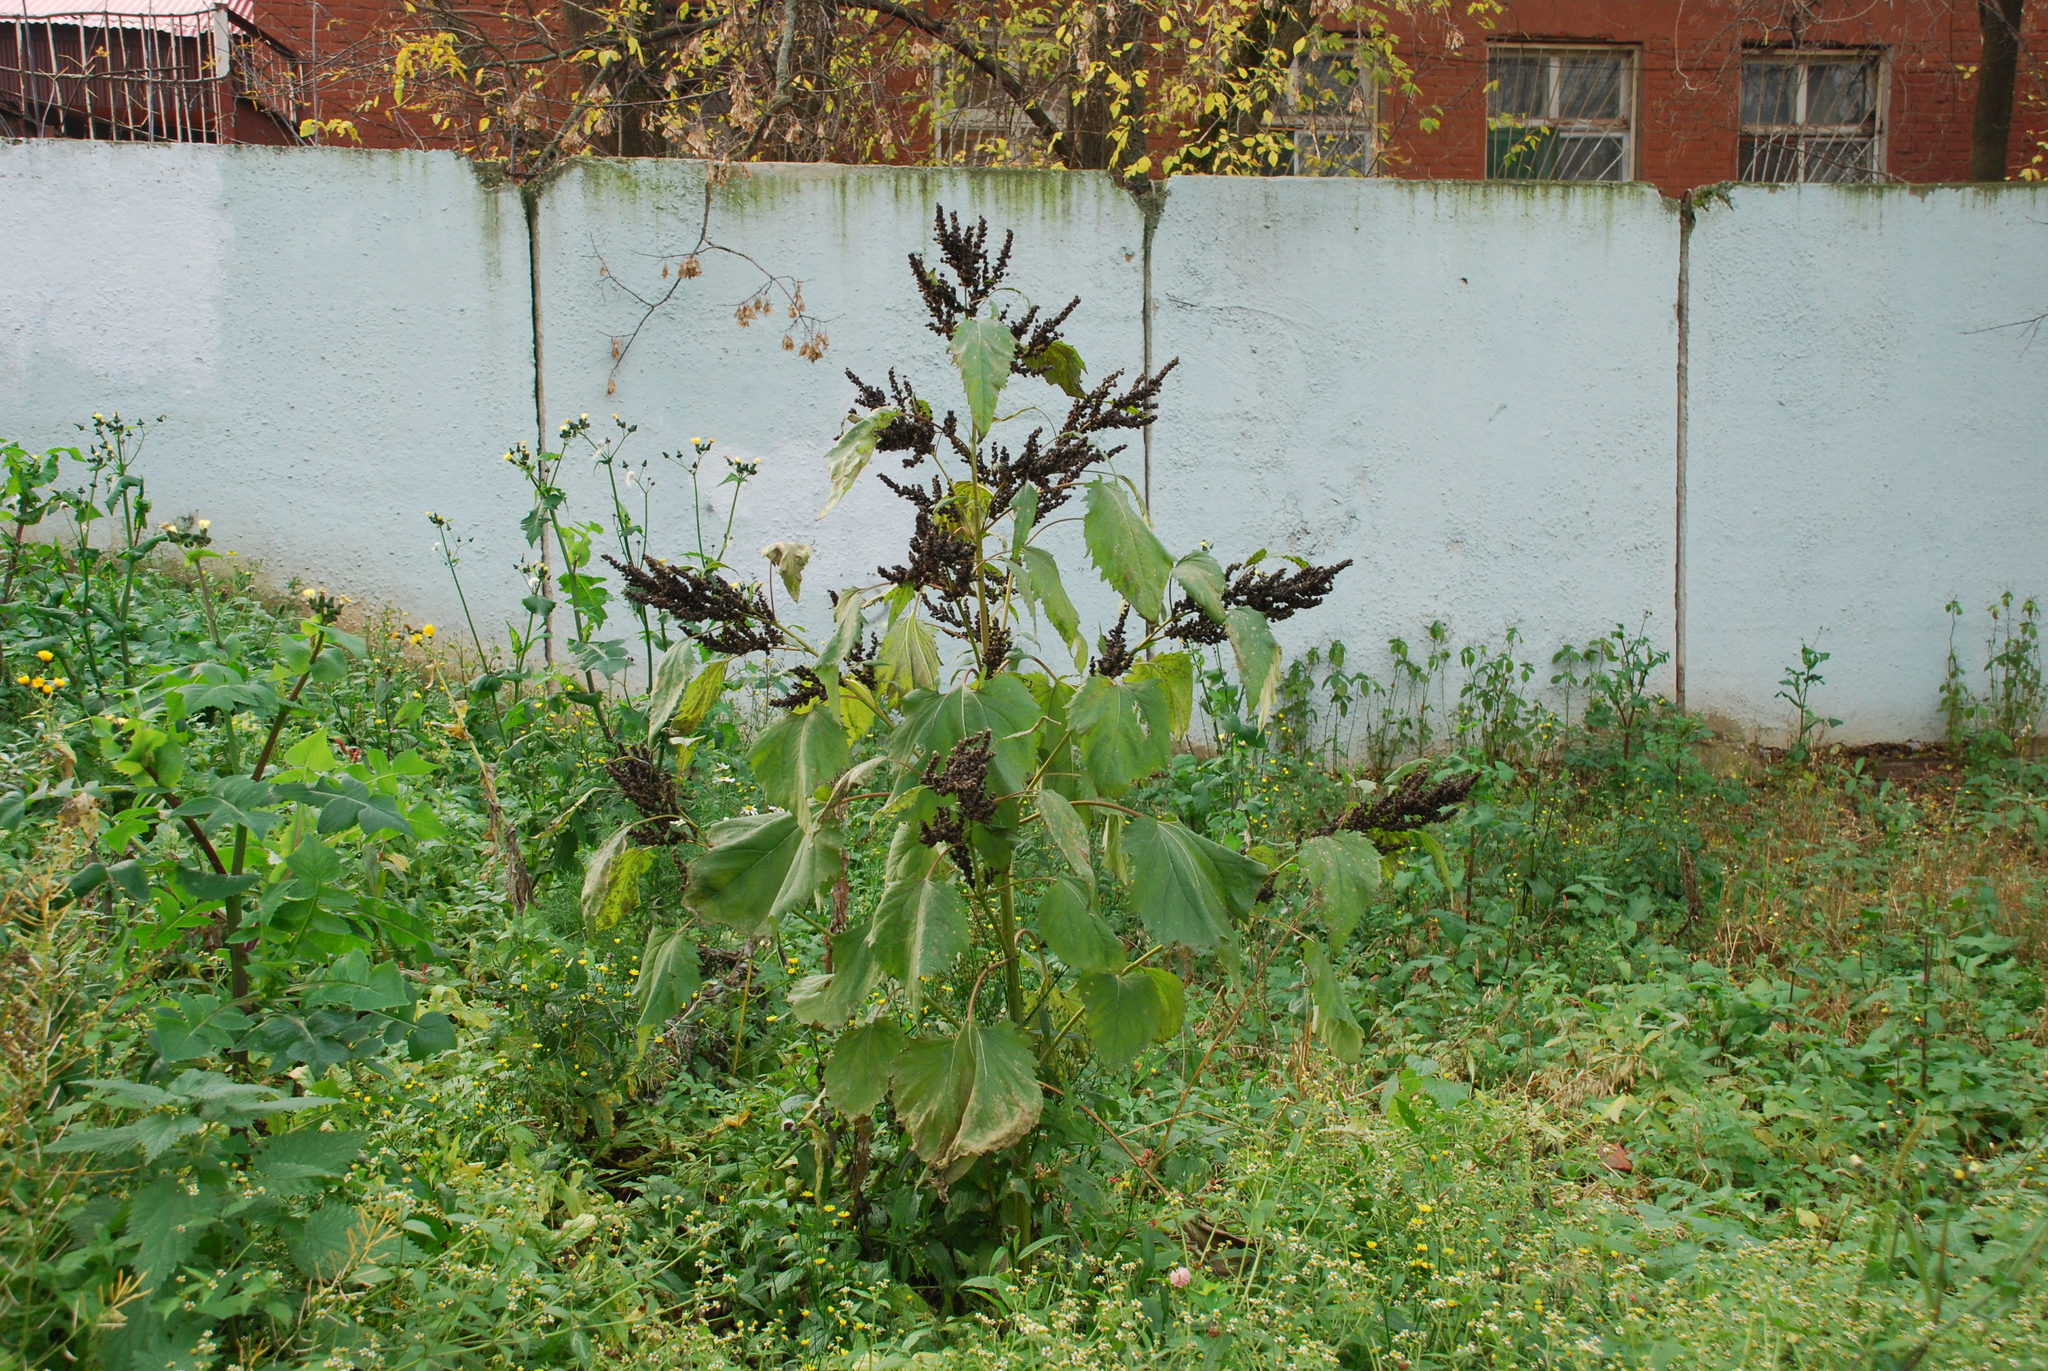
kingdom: Plantae
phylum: Tracheophyta
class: Magnoliopsida
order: Asterales
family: Asteraceae
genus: Cyclachaena
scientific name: Cyclachaena xanthiifolia
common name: Giant sumpweed
